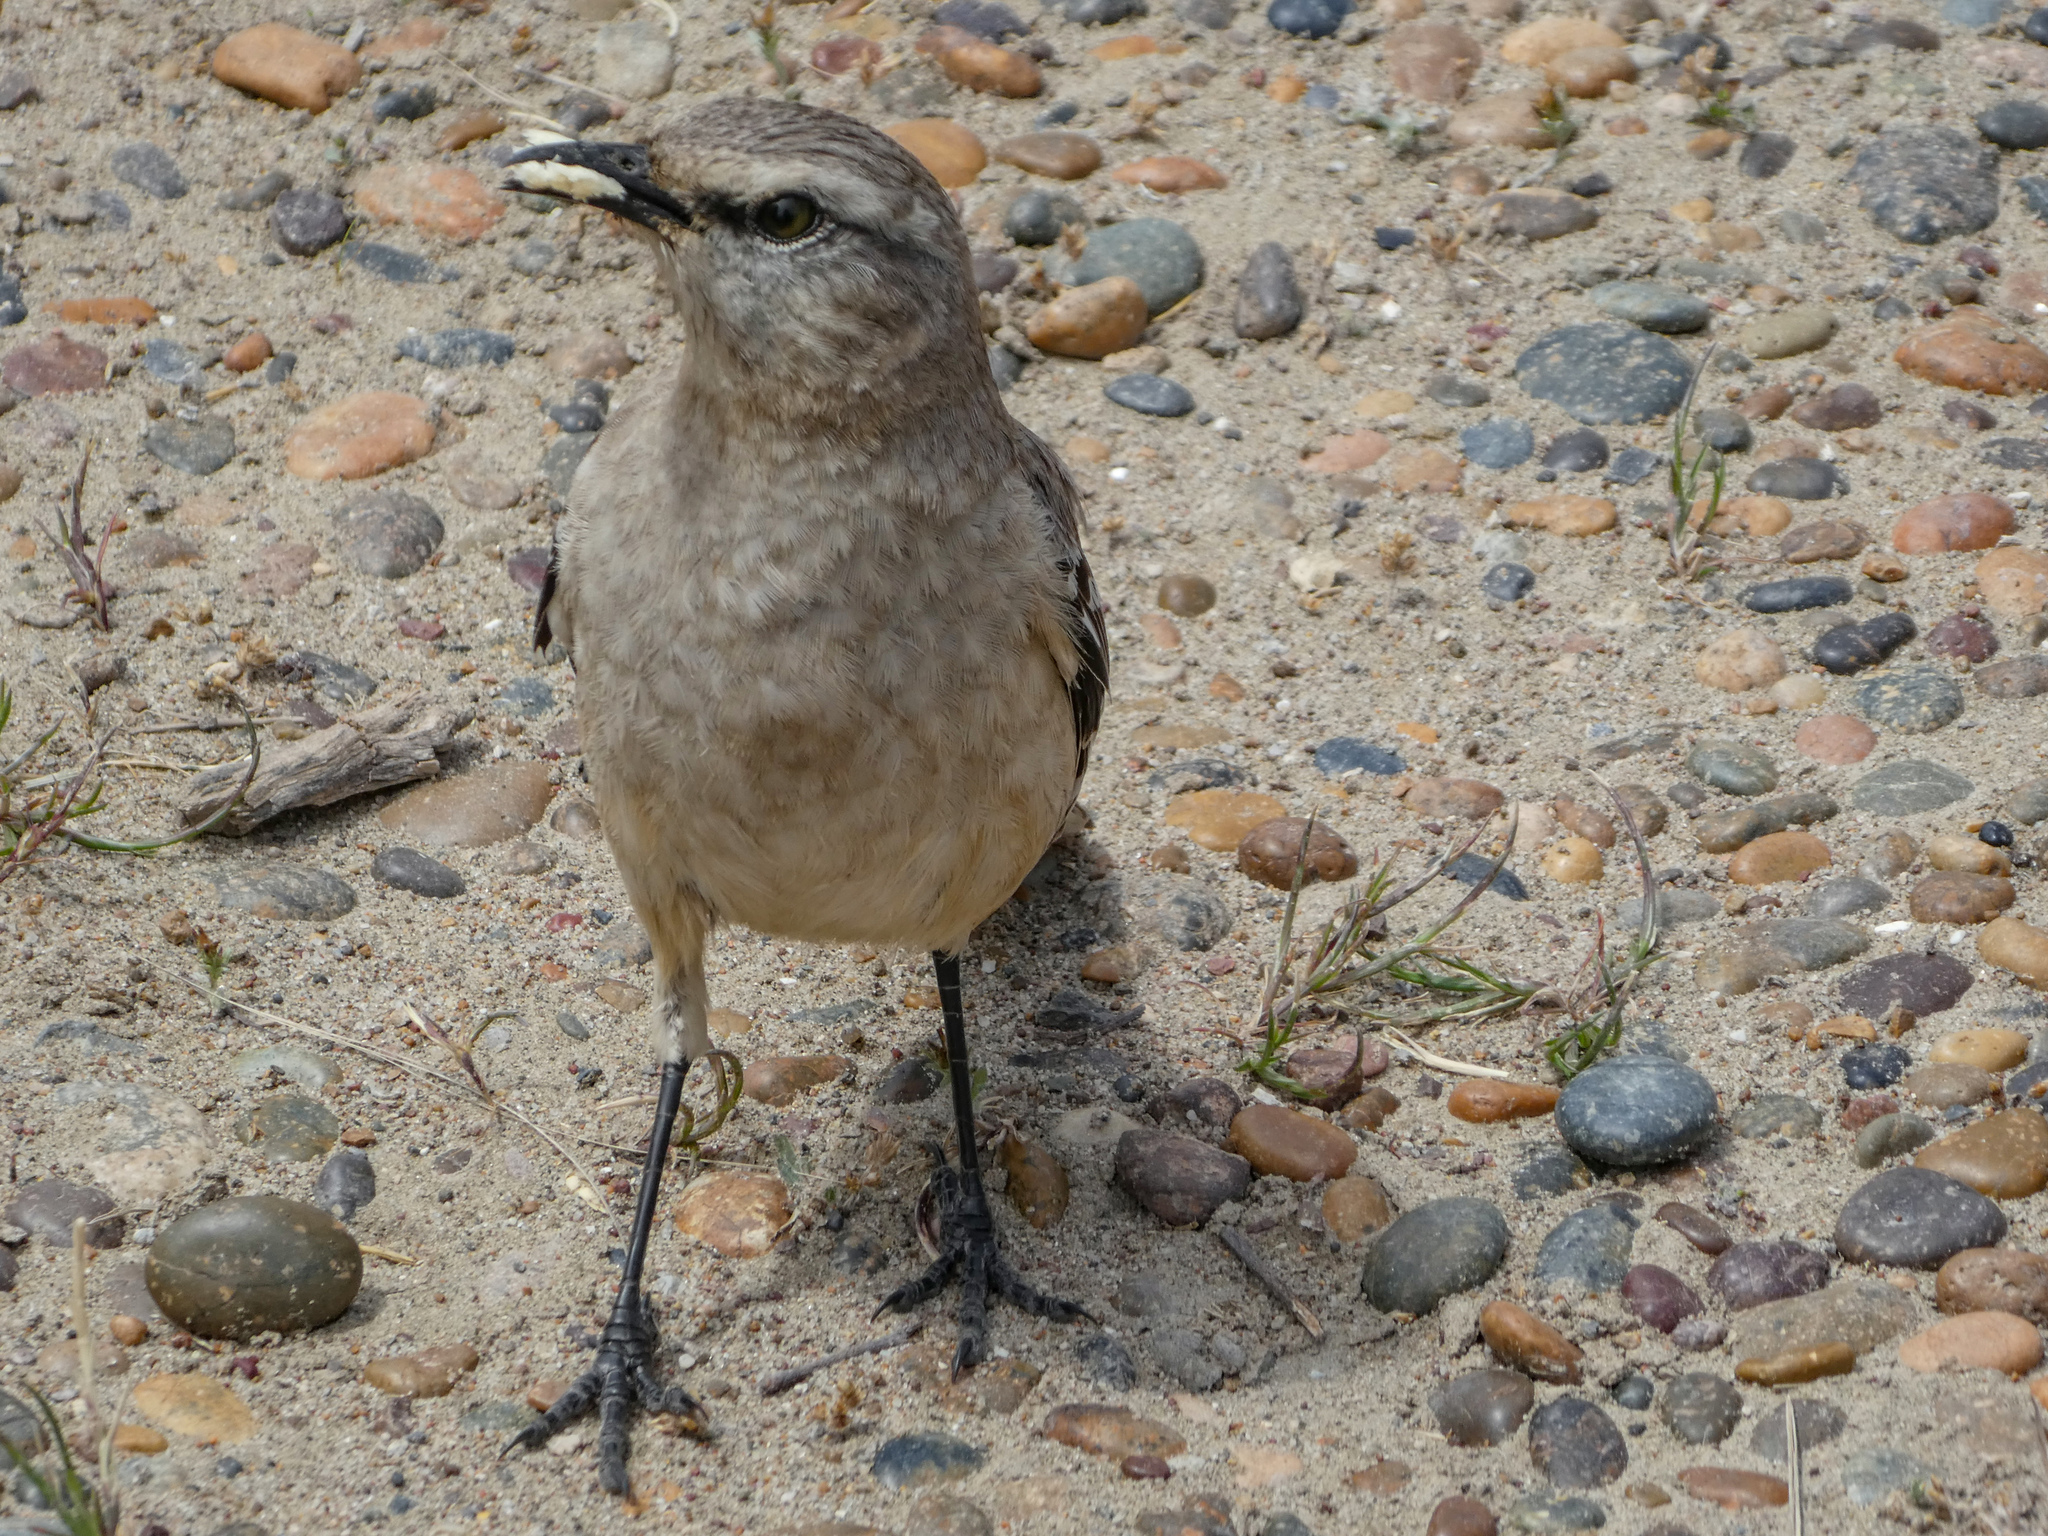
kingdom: Animalia
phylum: Chordata
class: Aves
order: Passeriformes
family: Mimidae
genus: Mimus
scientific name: Mimus patagonicus
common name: Patagonian mockingbird
